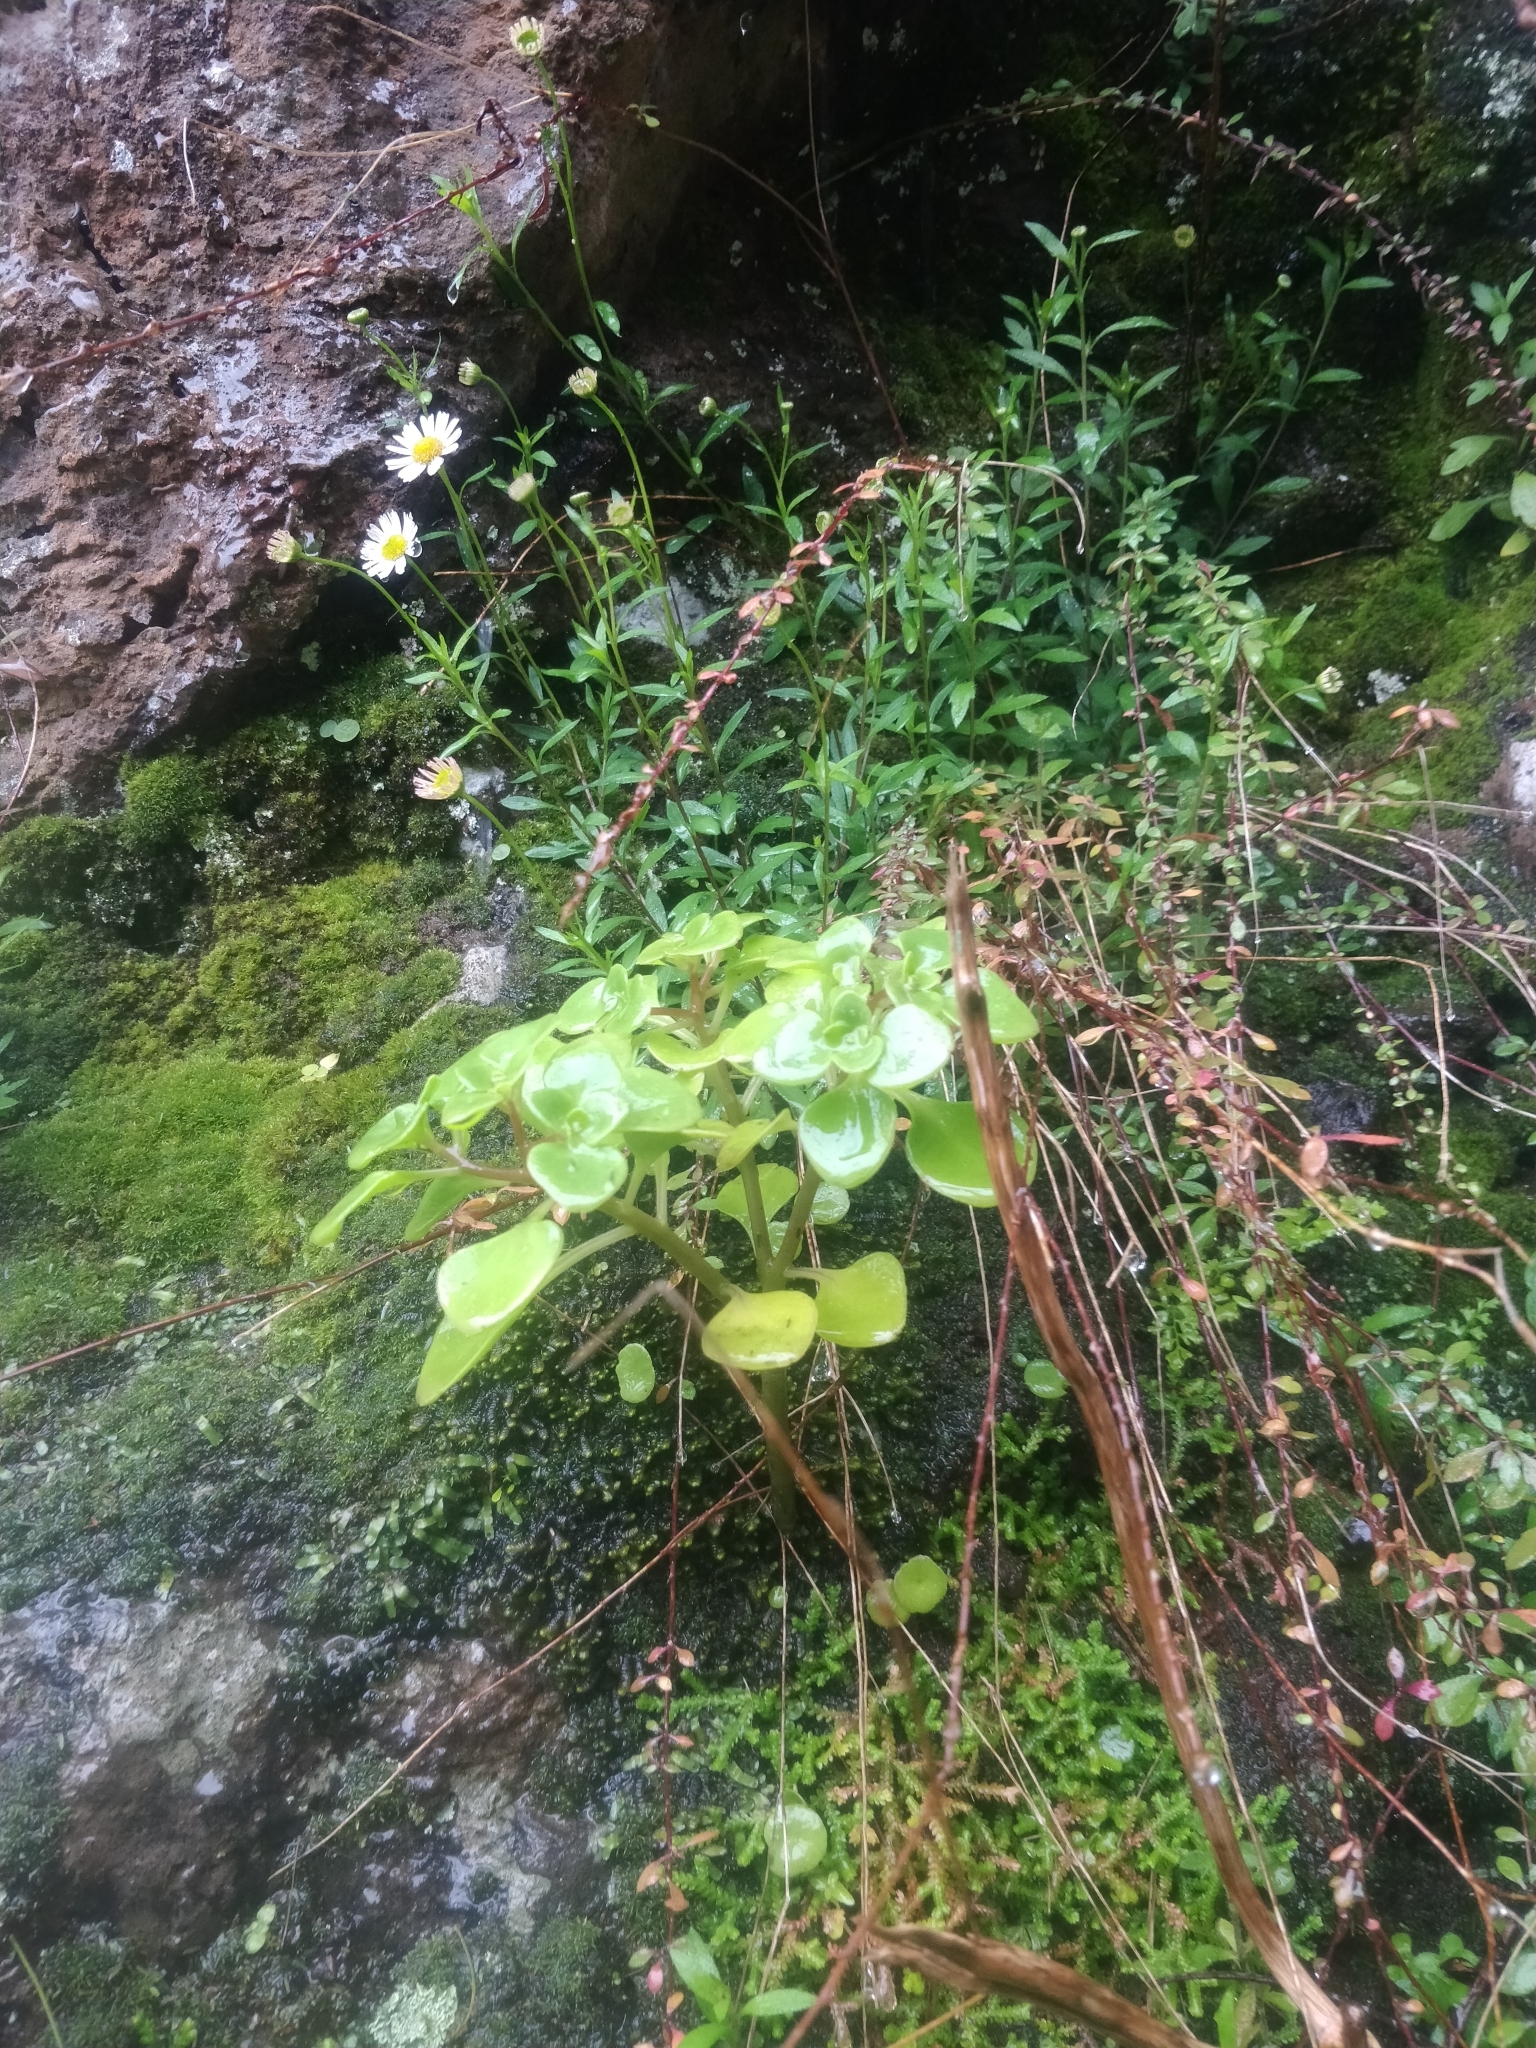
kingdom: Plantae
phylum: Tracheophyta
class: Magnoliopsida
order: Saxifragales
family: Crassulaceae
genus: Aichryson
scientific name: Aichryson divaricatum
